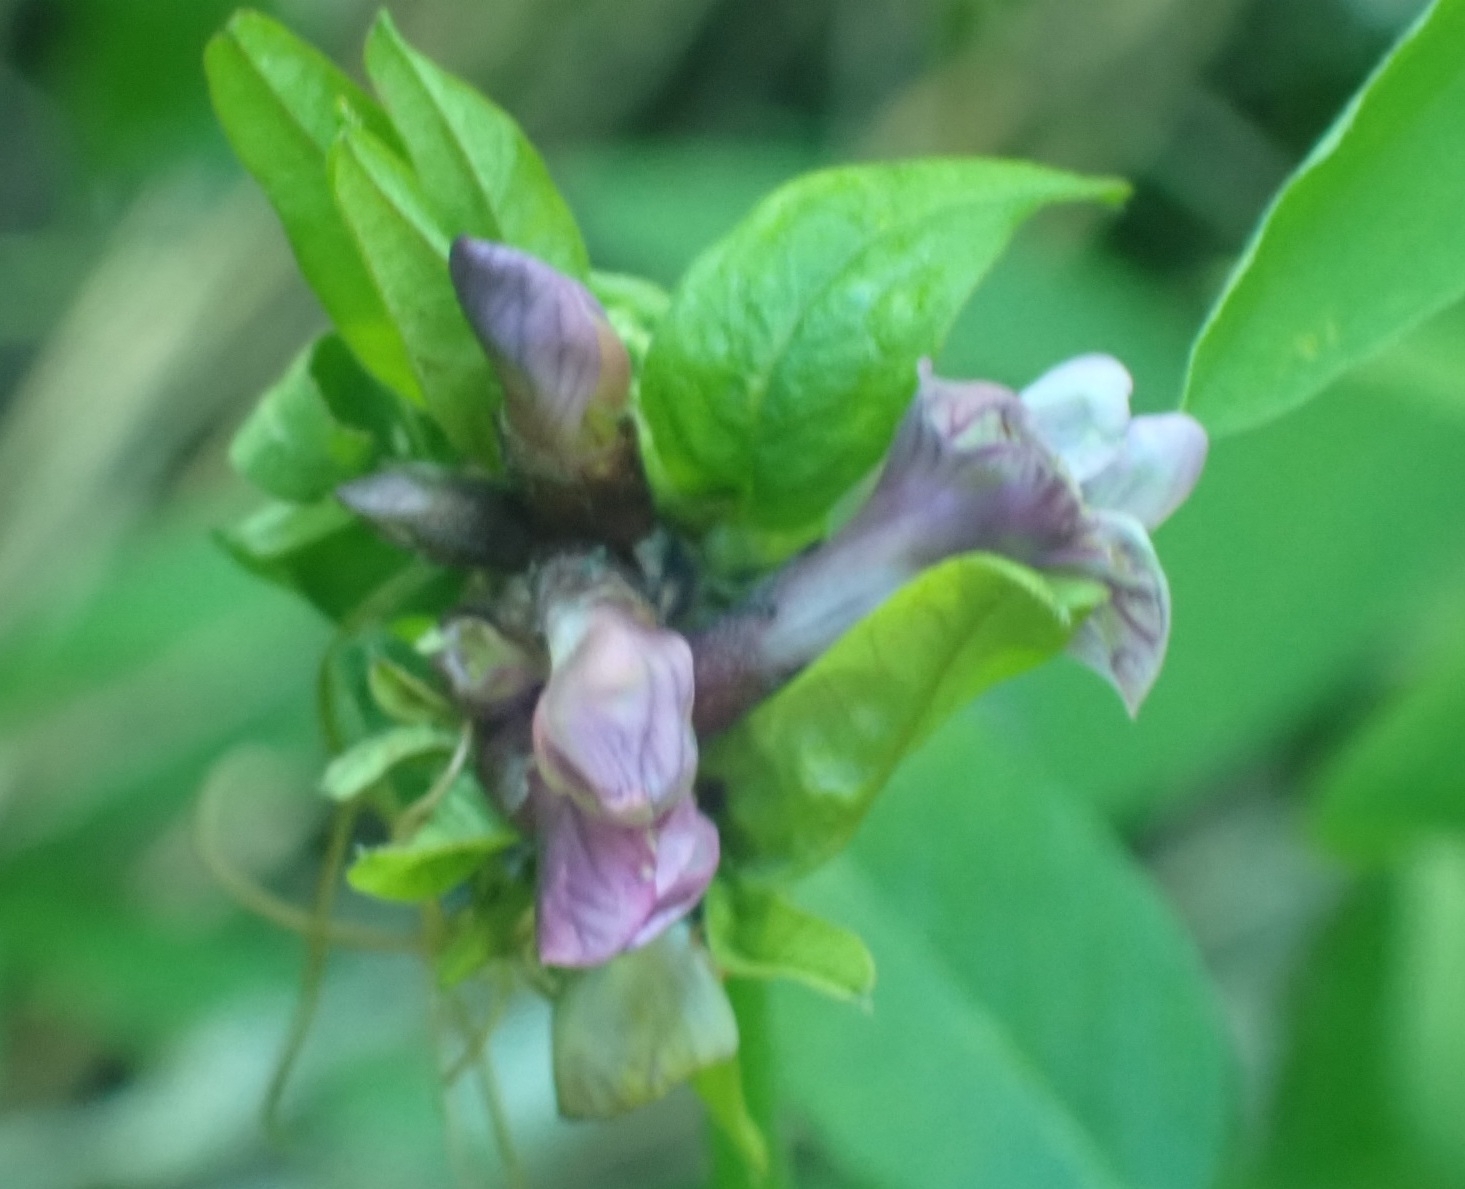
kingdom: Plantae
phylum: Tracheophyta
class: Magnoliopsida
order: Fabales
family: Fabaceae
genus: Vicia
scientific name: Vicia sepium
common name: Bush vetch
